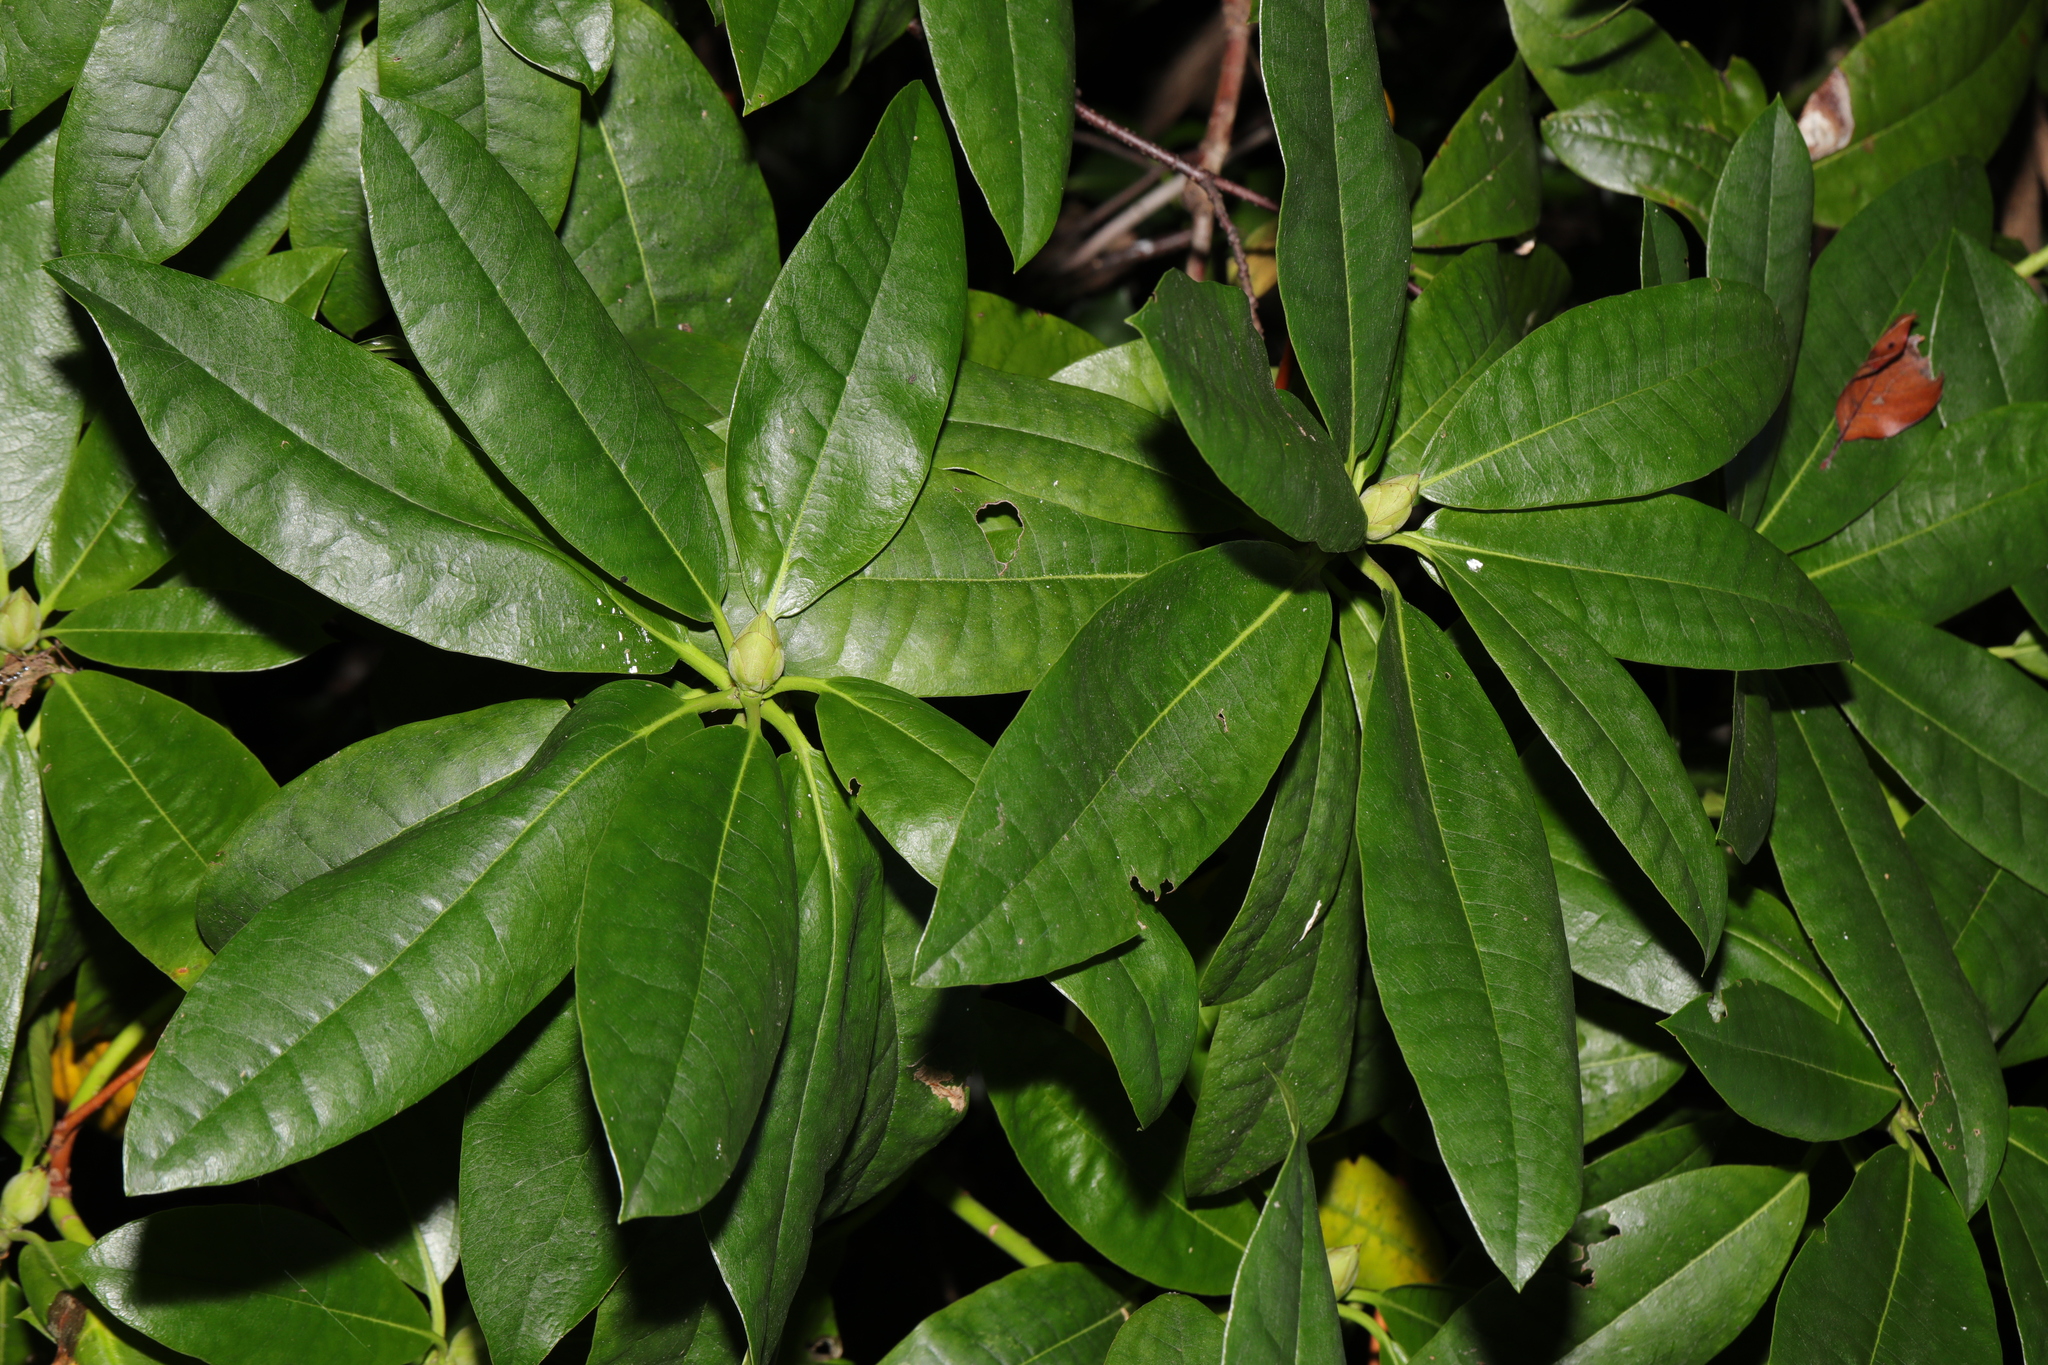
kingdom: Plantae
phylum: Tracheophyta
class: Magnoliopsida
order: Ericales
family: Ericaceae
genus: Rhododendron
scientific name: Rhododendron ponticum
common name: Rhododendron
